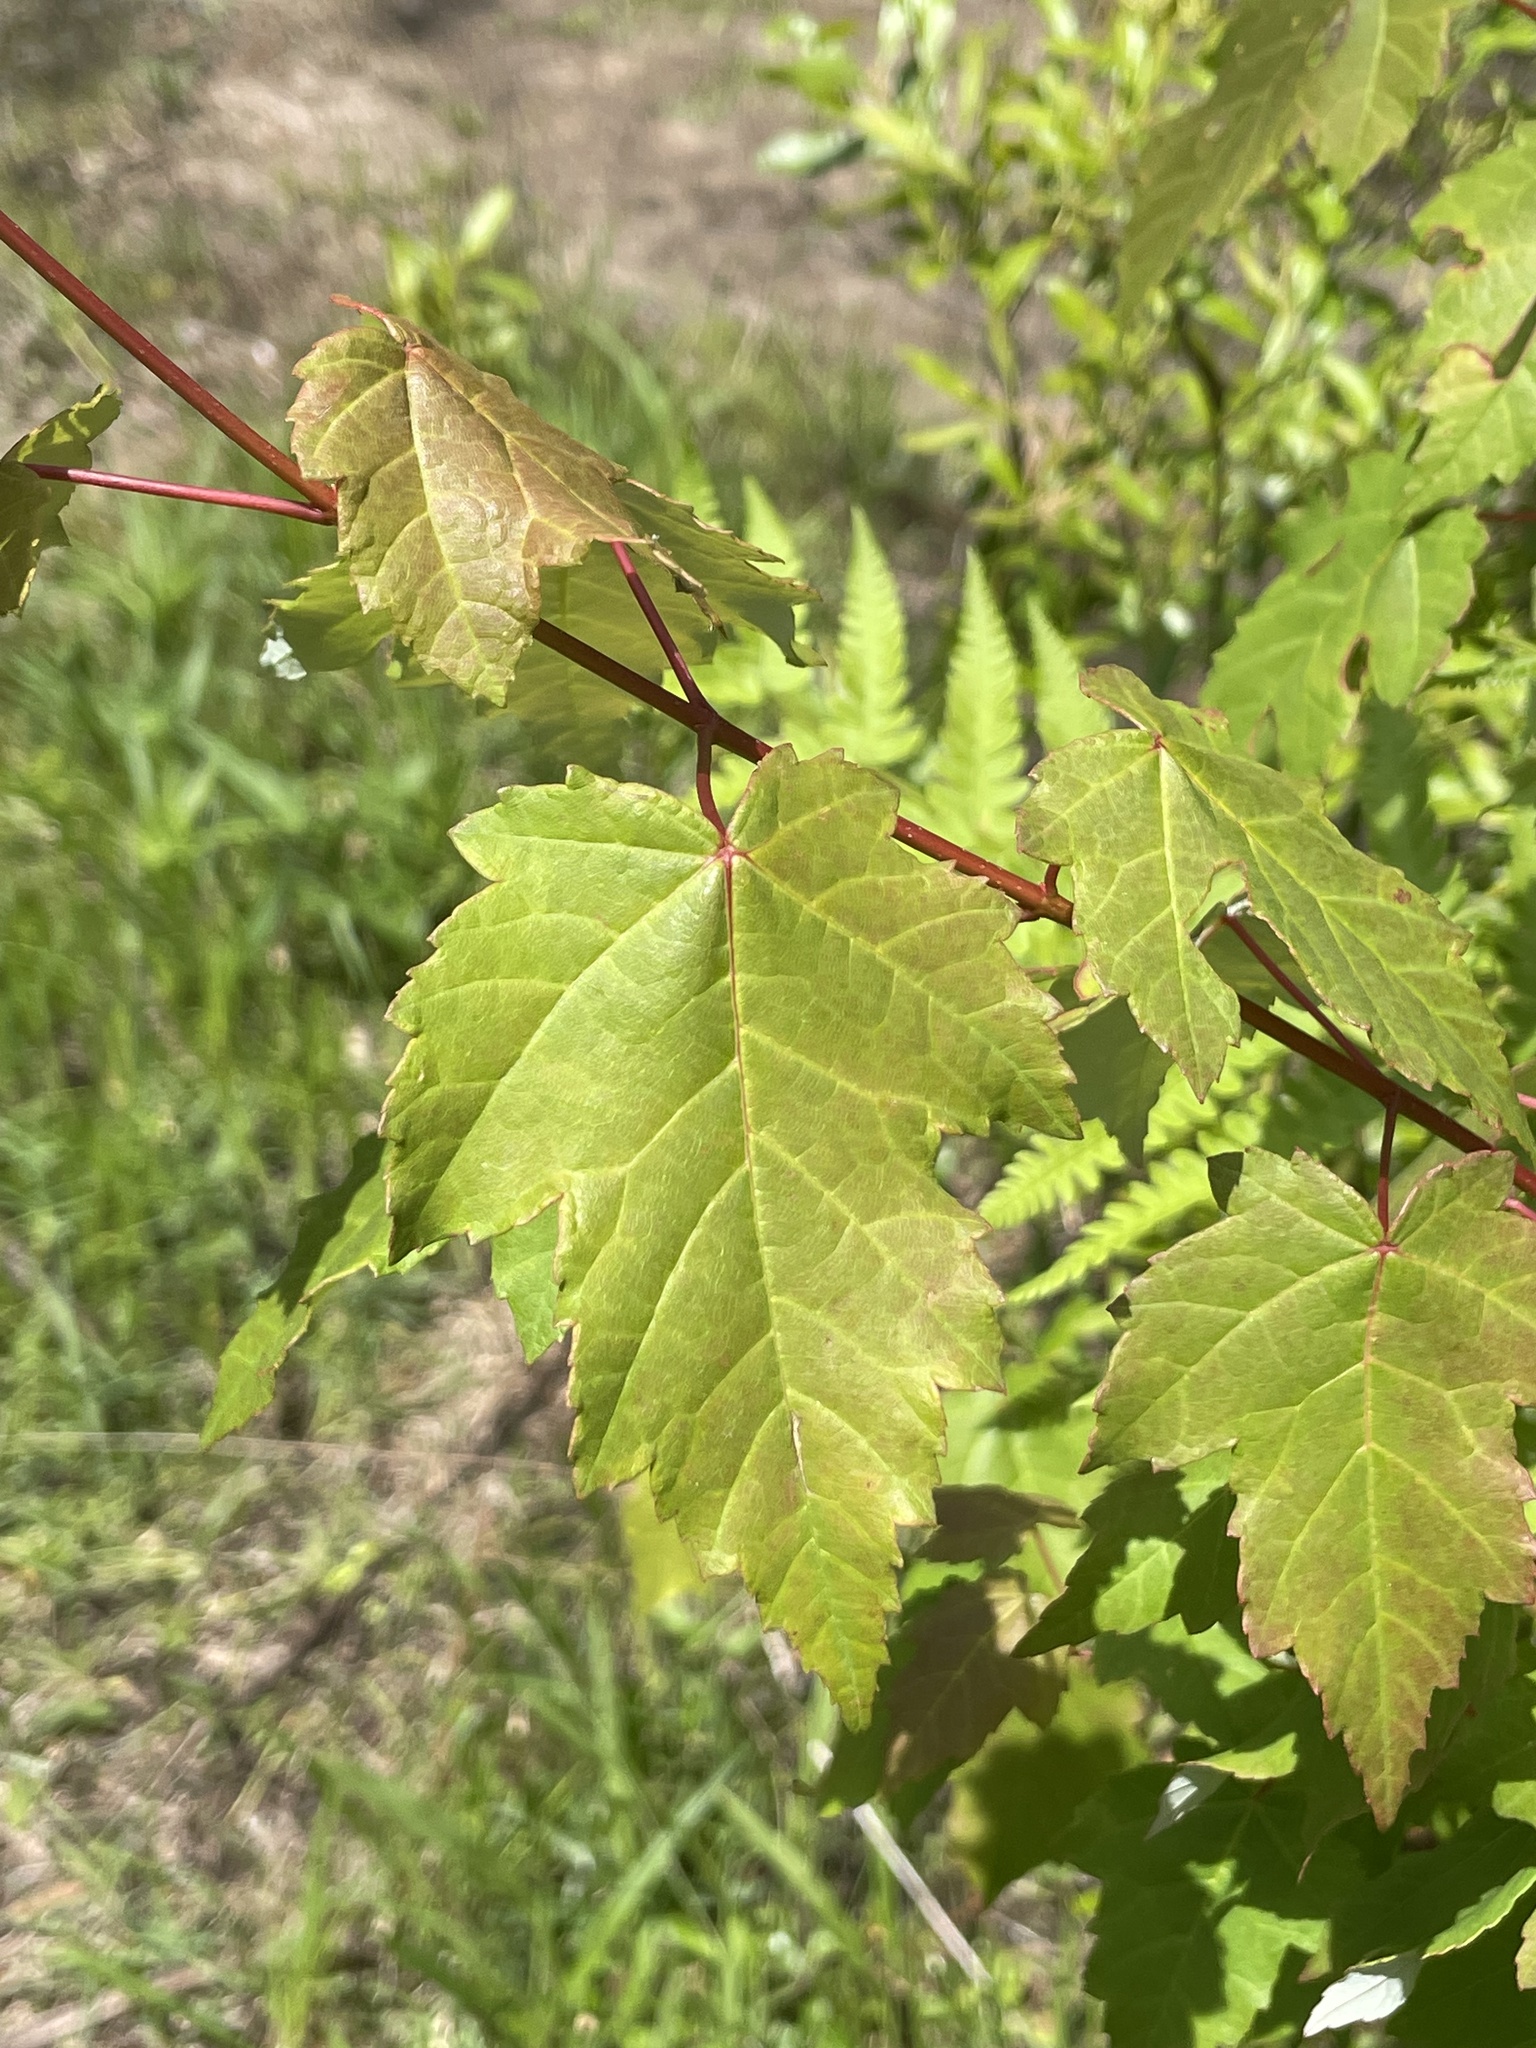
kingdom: Plantae
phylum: Tracheophyta
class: Magnoliopsida
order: Sapindales
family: Sapindaceae
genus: Acer
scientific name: Acer rubrum
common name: Red maple
